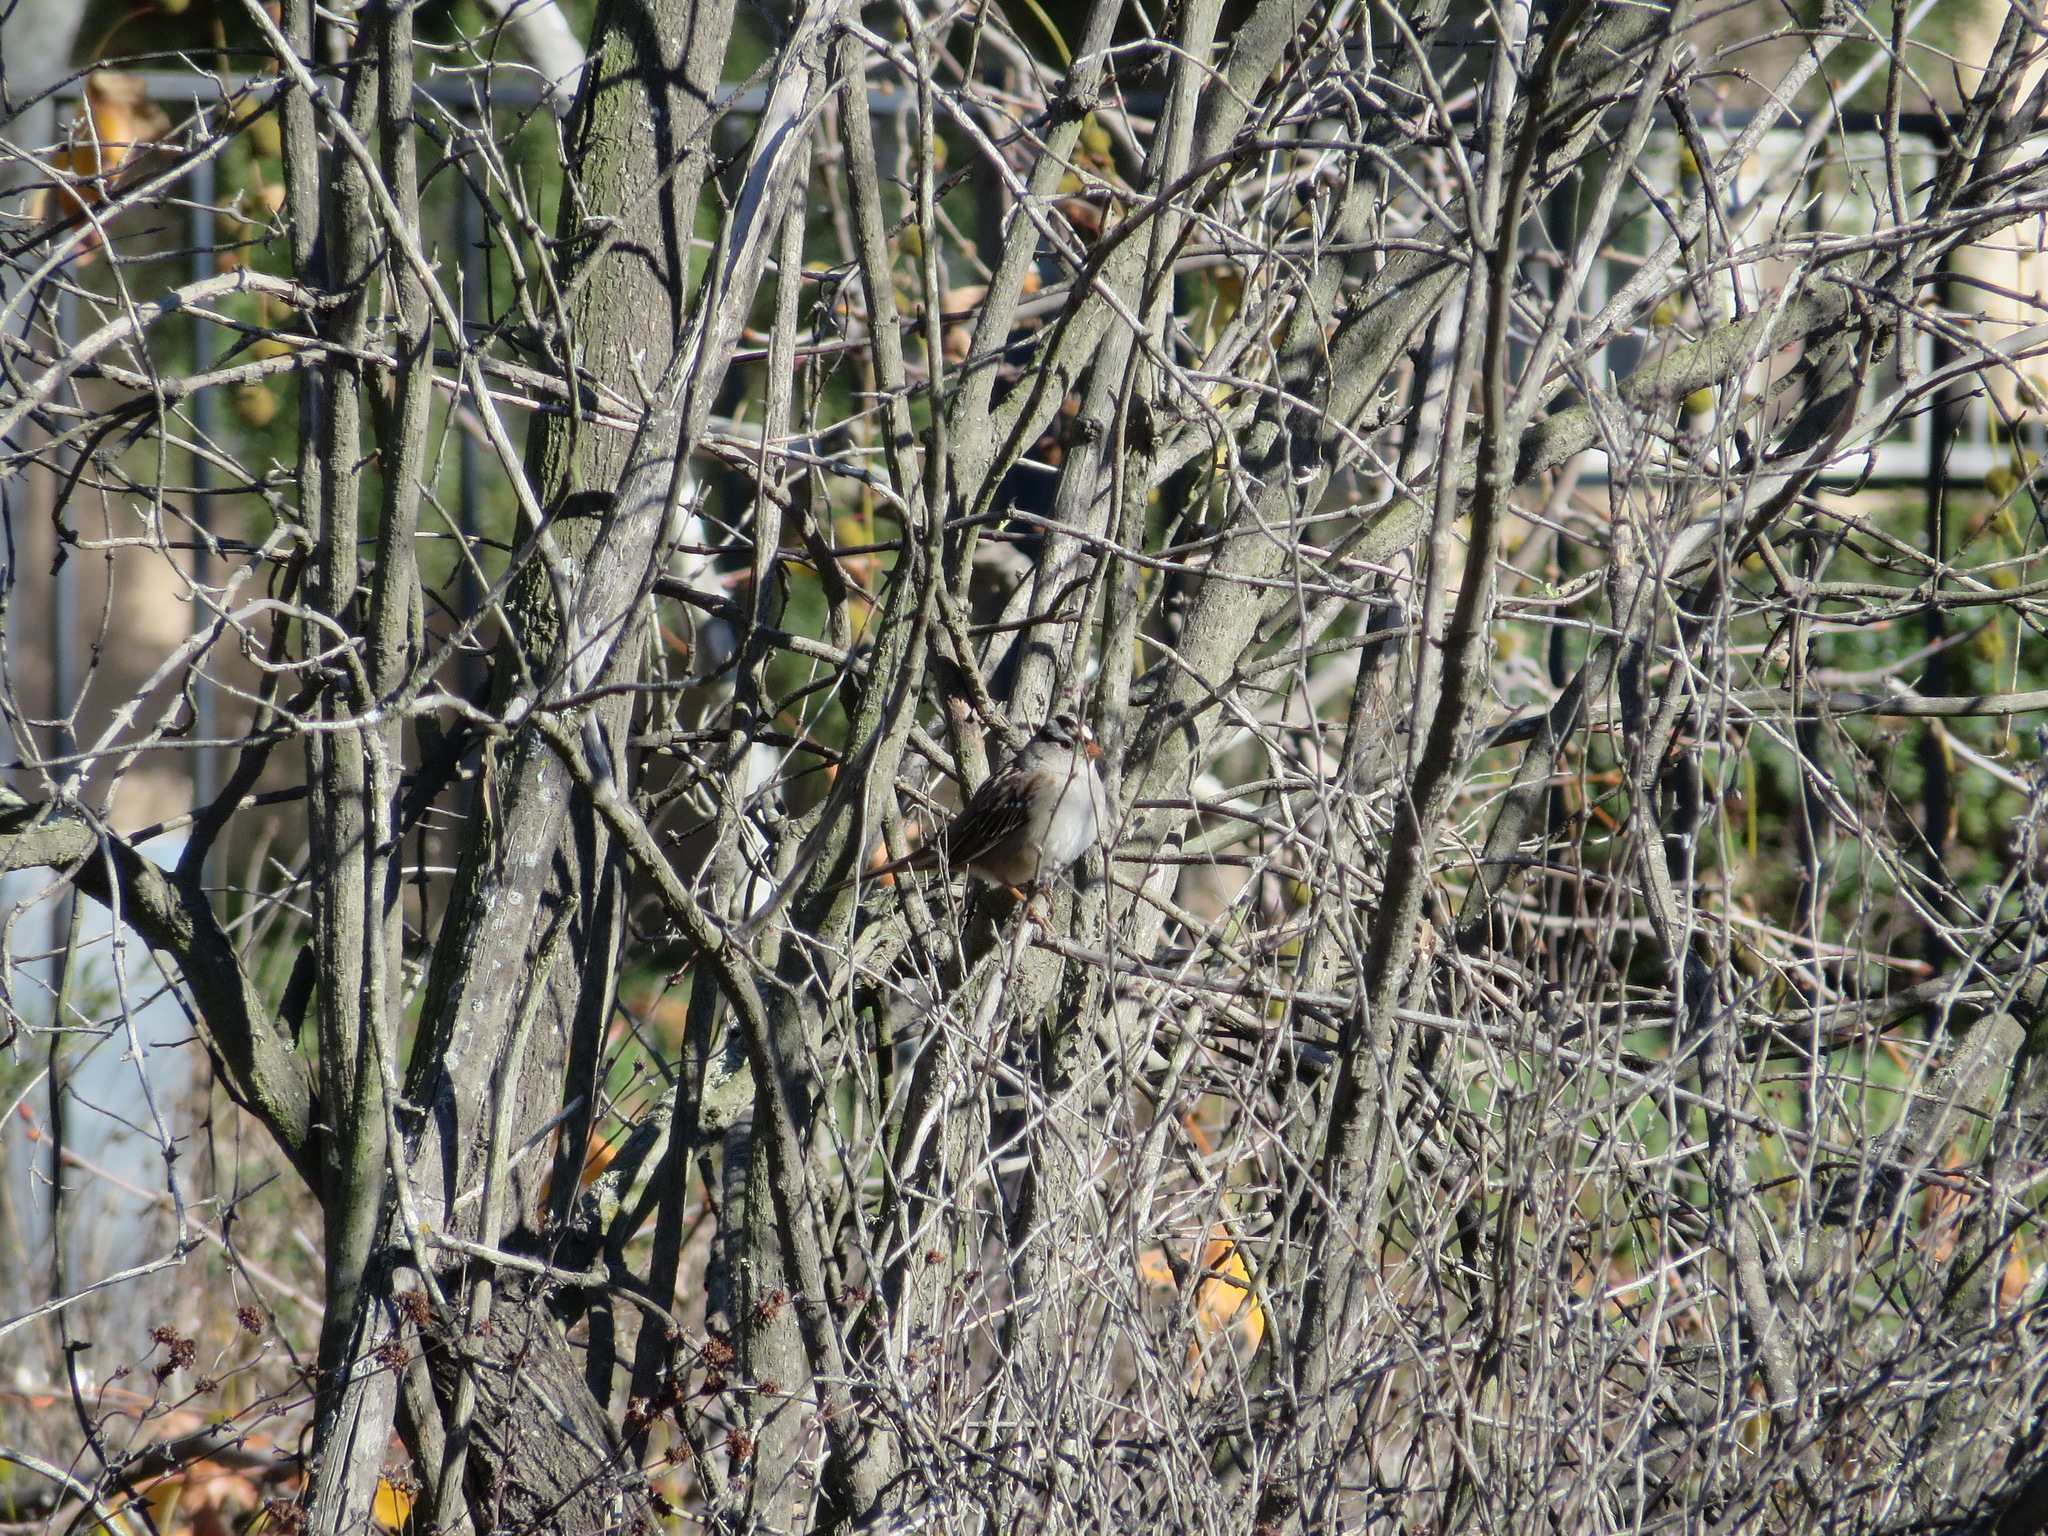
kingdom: Animalia
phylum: Chordata
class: Aves
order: Passeriformes
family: Passerellidae
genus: Zonotrichia
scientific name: Zonotrichia leucophrys
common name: White-crowned sparrow
